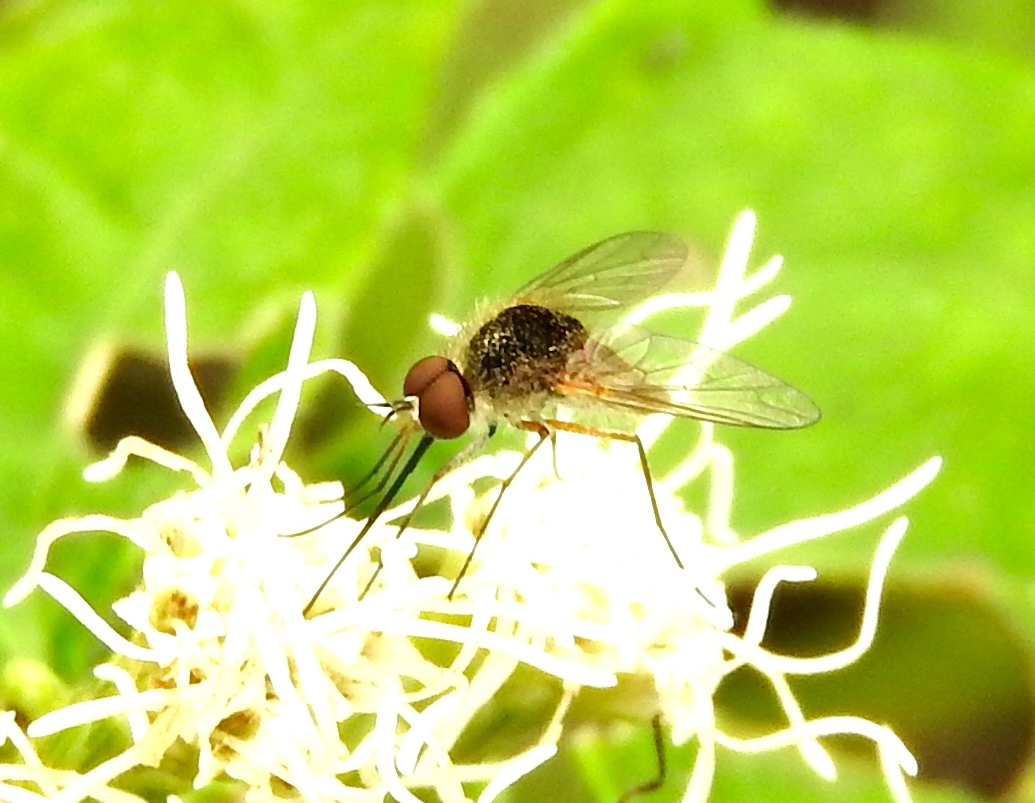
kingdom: Animalia
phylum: Arthropoda
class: Insecta
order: Diptera
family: Bombyliidae
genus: Geron
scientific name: Geron
